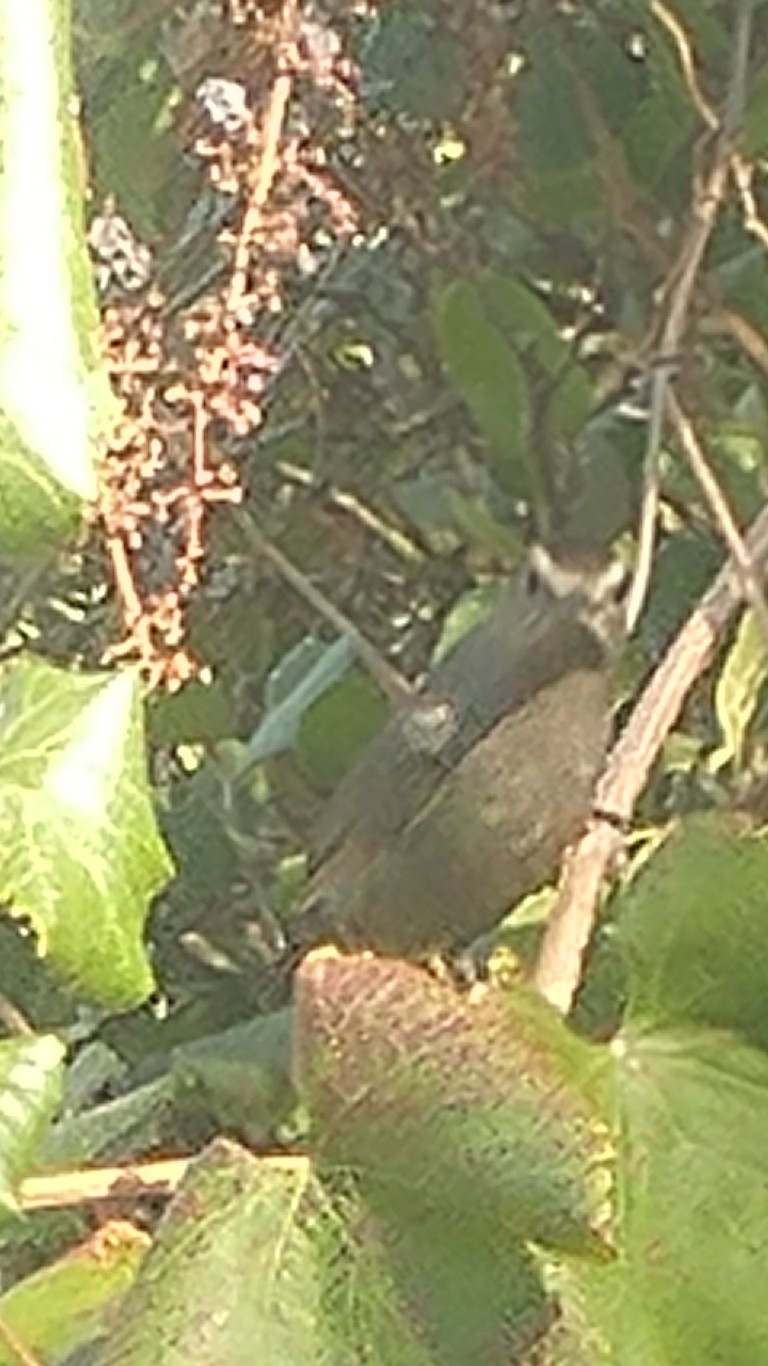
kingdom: Animalia
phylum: Chordata
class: Aves
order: Passeriformes
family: Mimidae
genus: Dumetella
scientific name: Dumetella carolinensis
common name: Gray catbird
